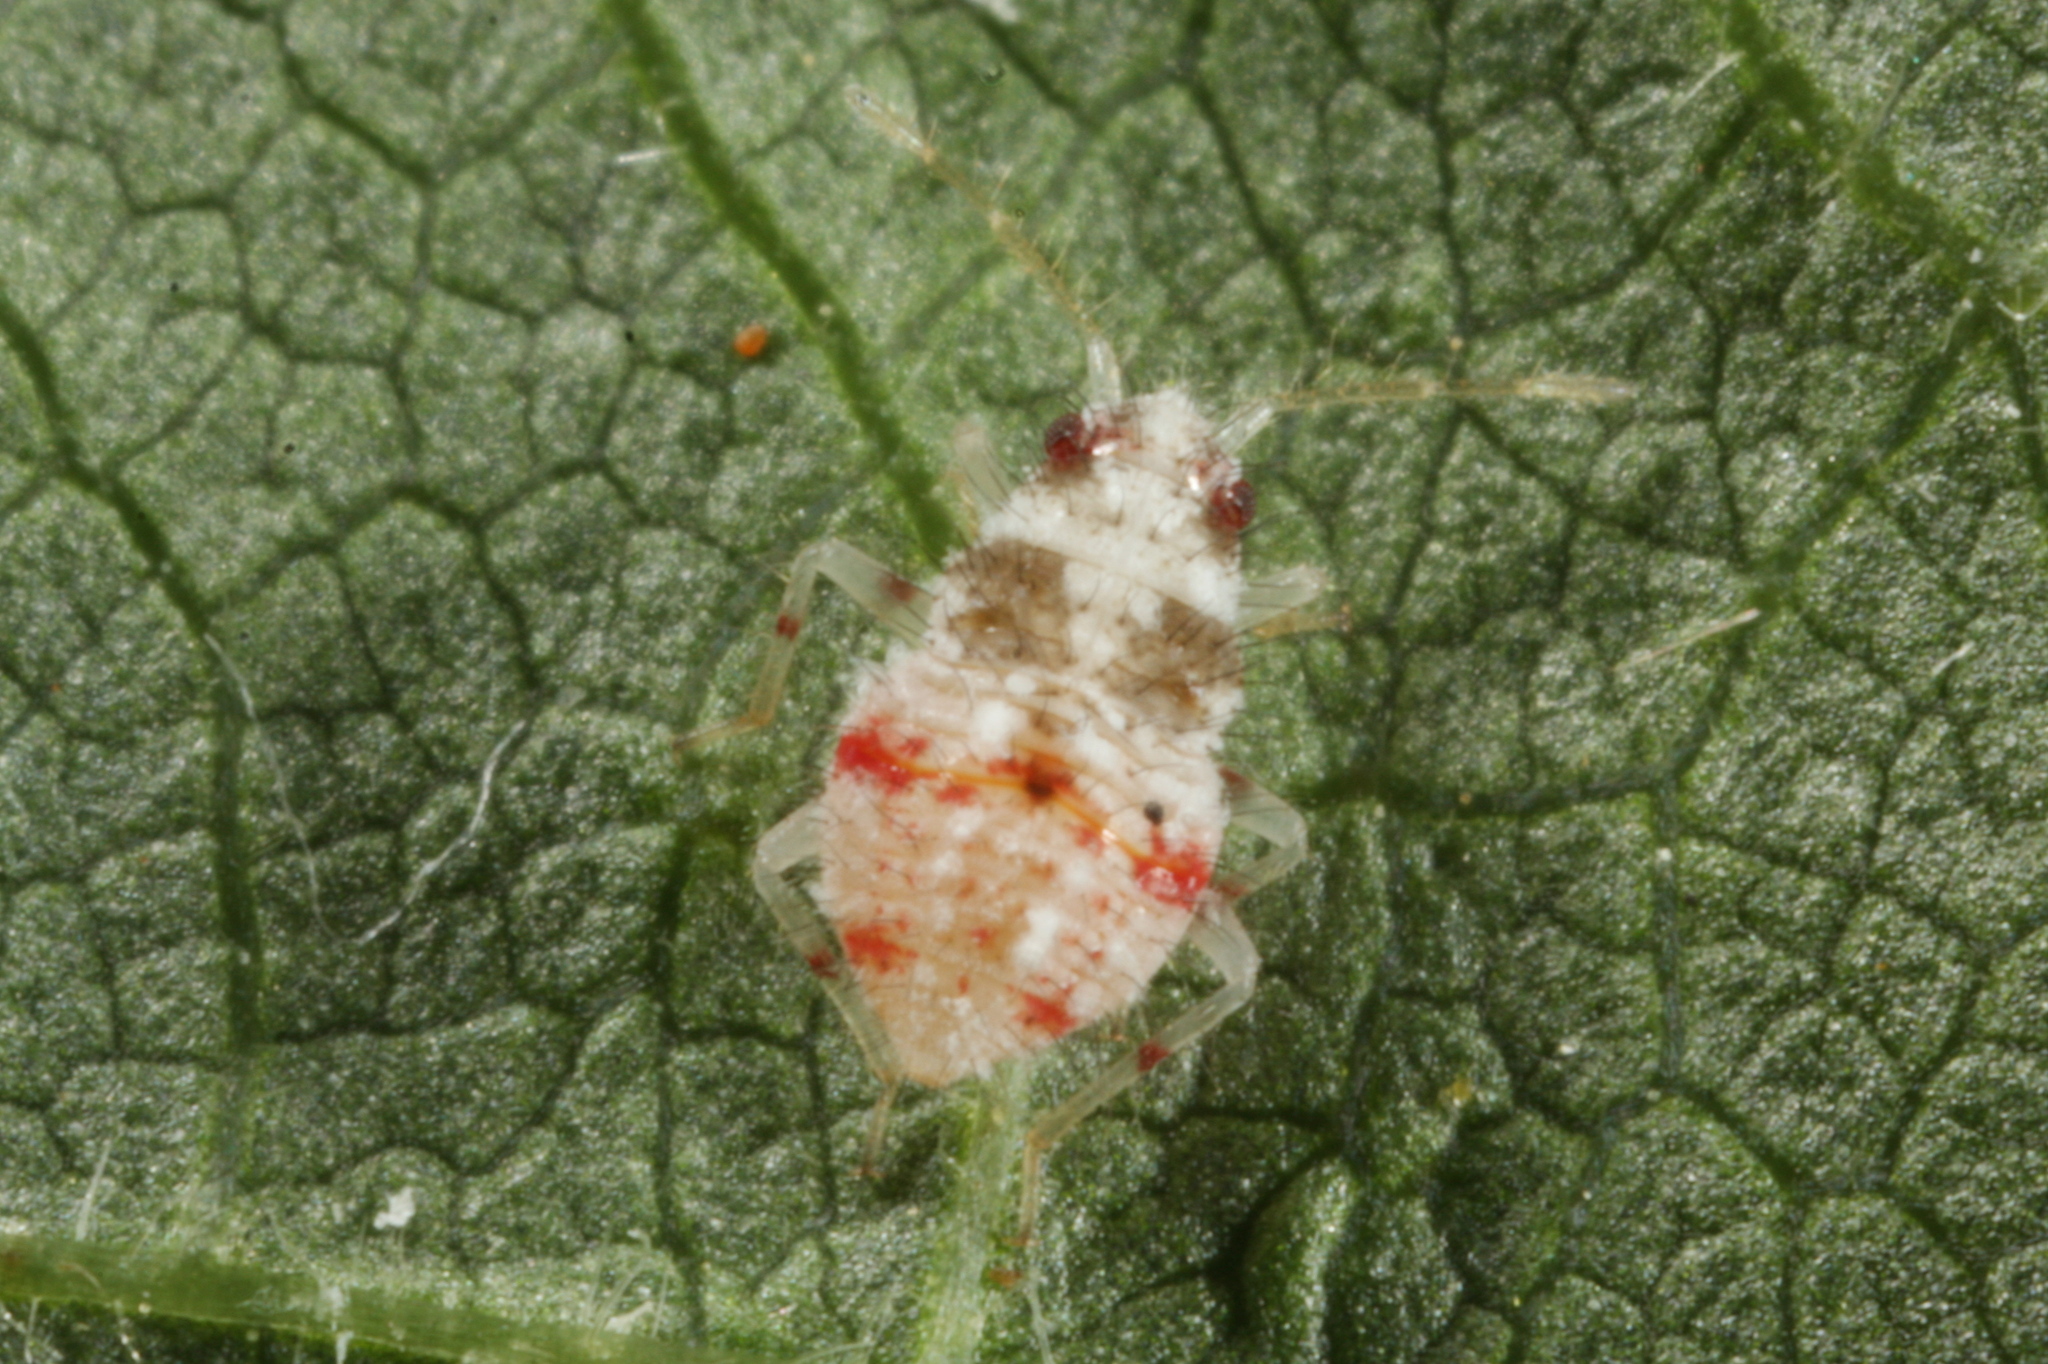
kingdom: Animalia
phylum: Arthropoda
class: Insecta
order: Hemiptera
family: Miridae
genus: Deraeocoris
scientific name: Deraeocoris lutescens
